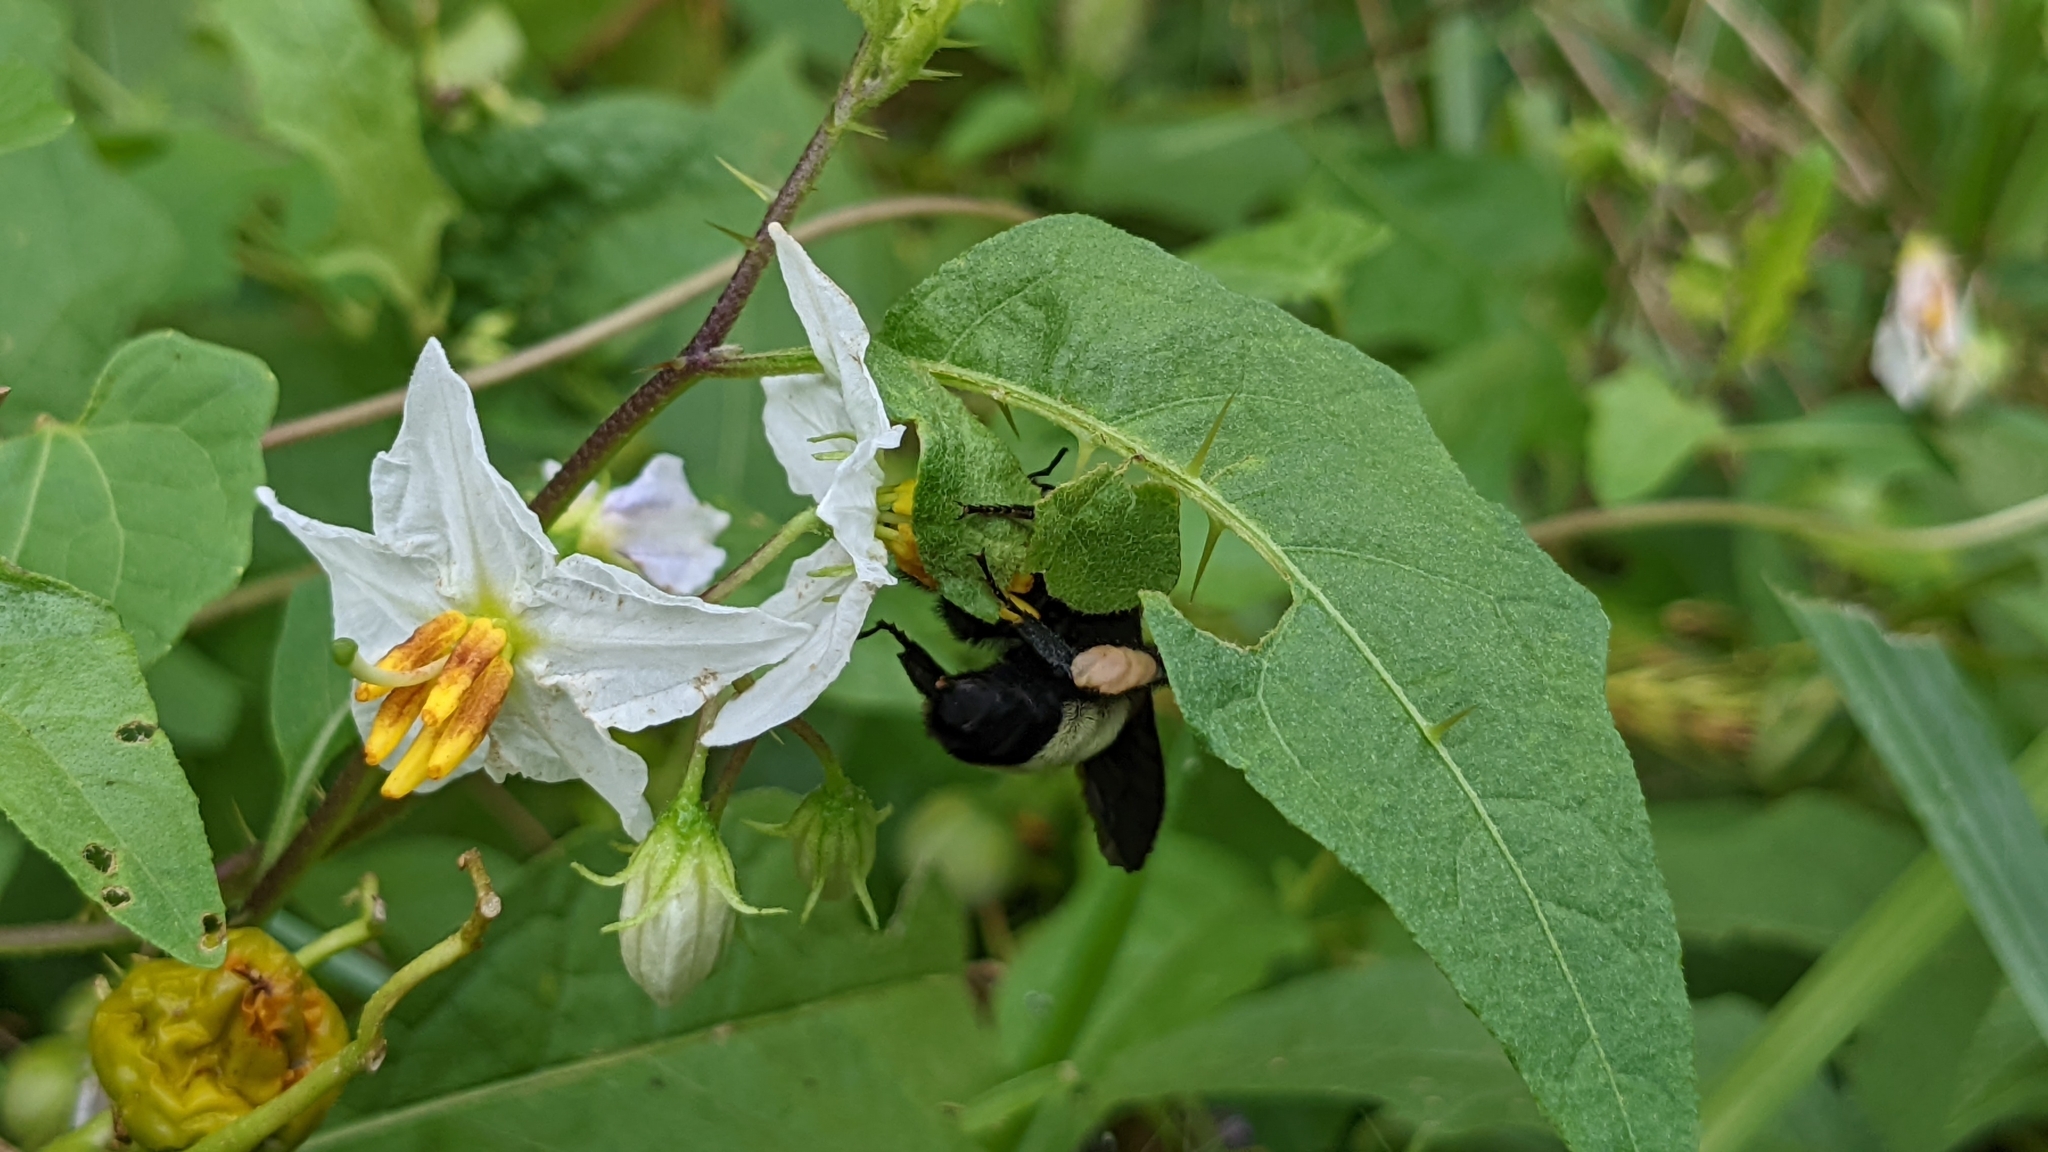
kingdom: Animalia
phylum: Arthropoda
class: Insecta
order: Hymenoptera
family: Apidae
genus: Bombus
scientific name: Bombus pensylvanicus
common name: Bumble bee
